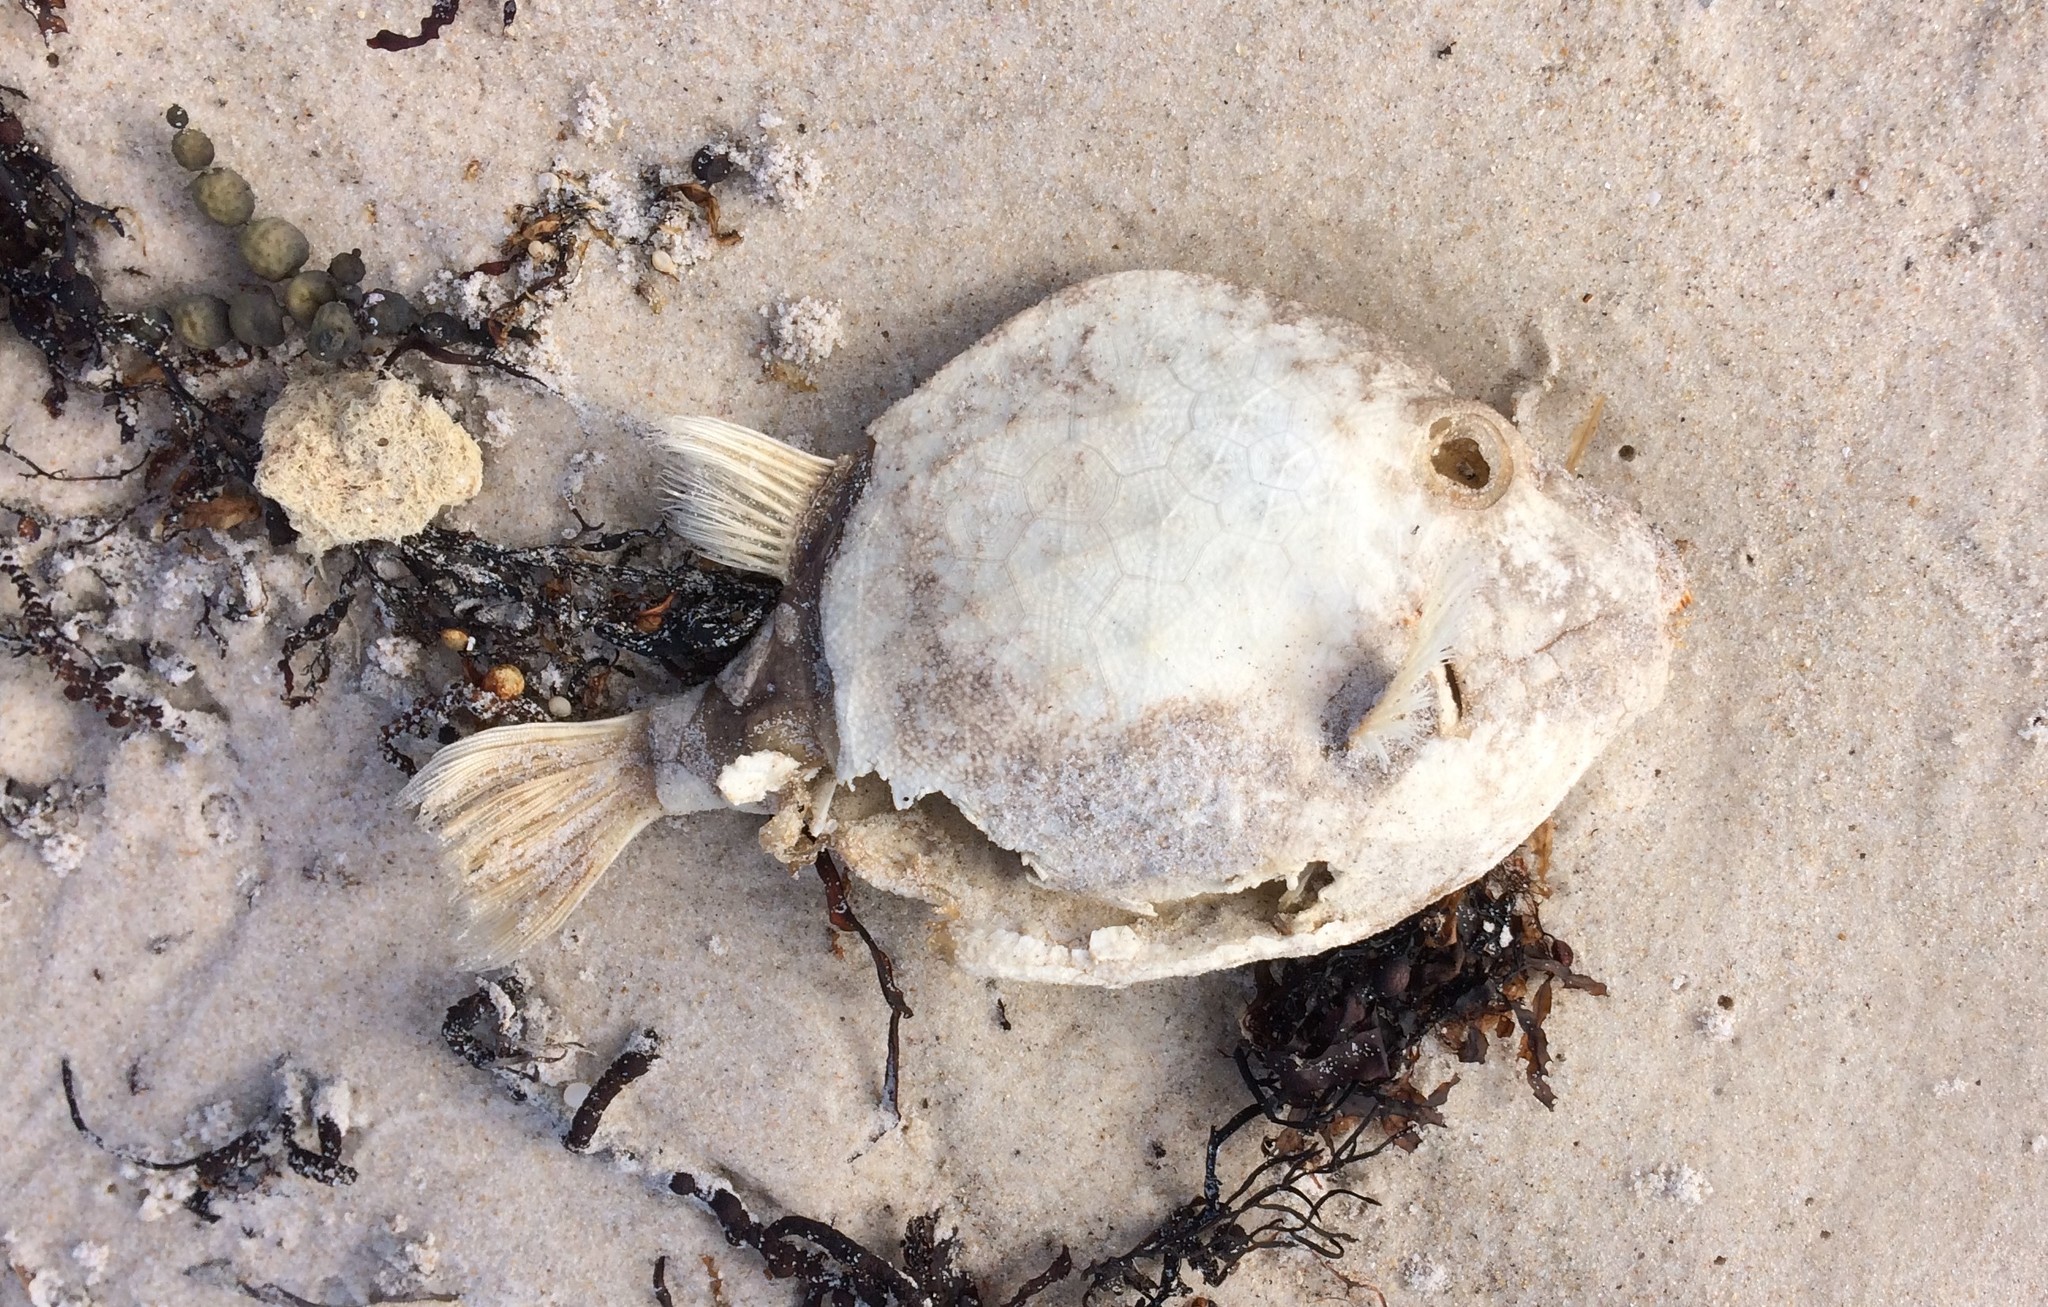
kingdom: Animalia
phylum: Chordata
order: Tetraodontiformes
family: Aracanidae
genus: Anoplocapros
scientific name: Anoplocapros amygdaloides
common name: Blue boxfish
